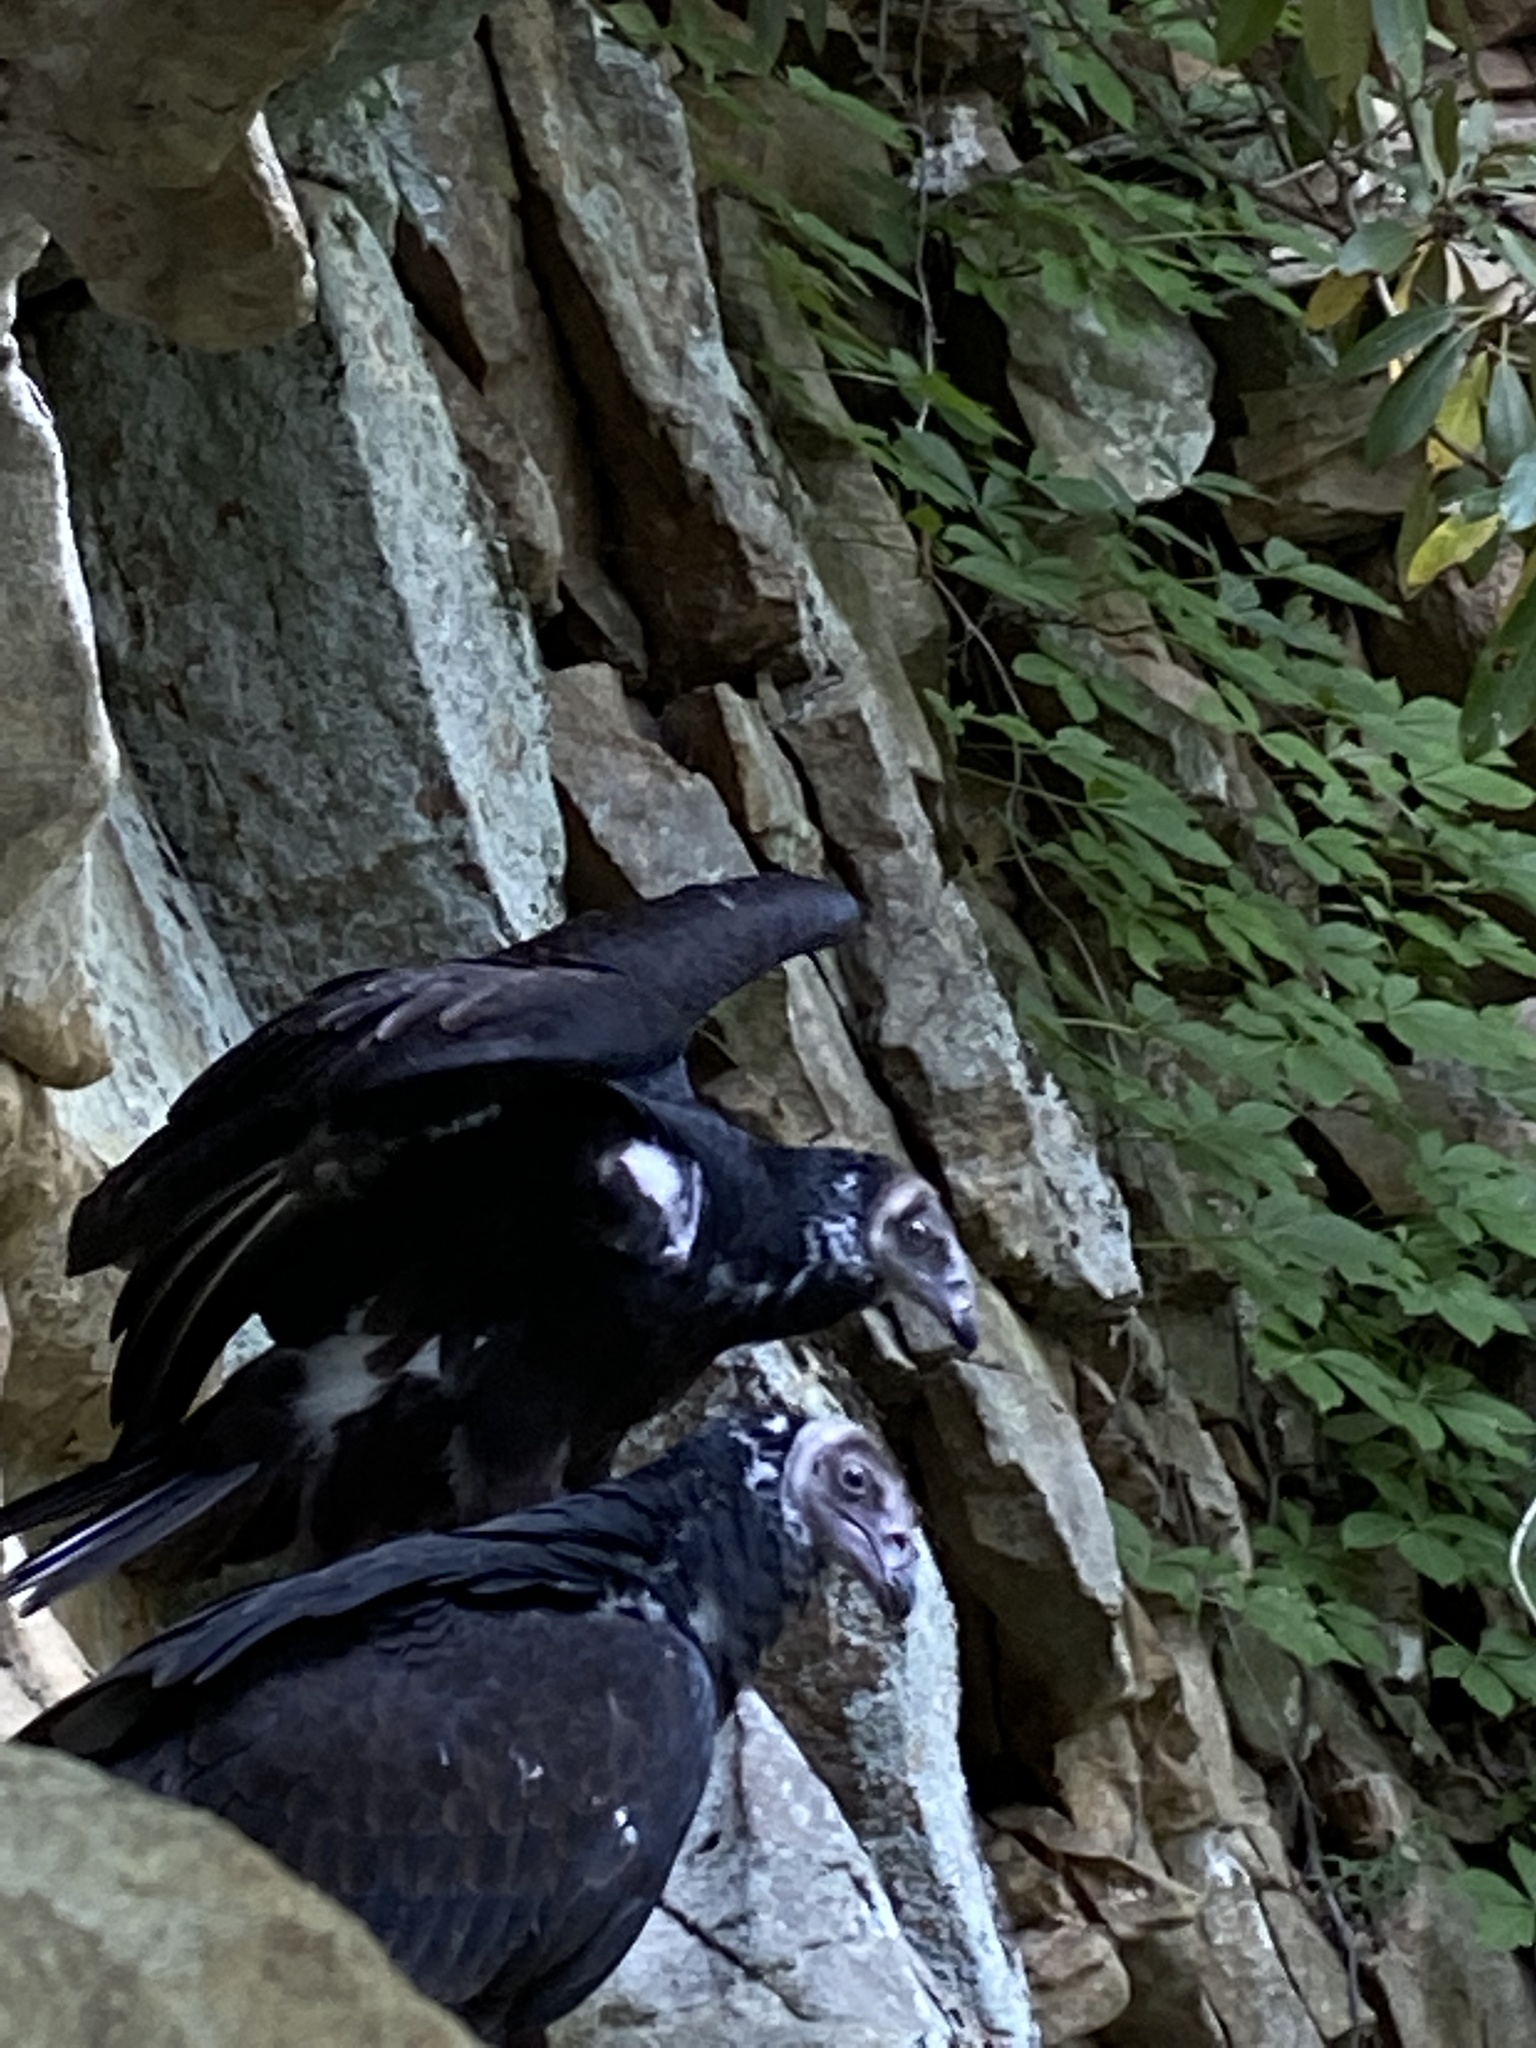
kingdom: Animalia
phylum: Chordata
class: Aves
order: Accipitriformes
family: Cathartidae
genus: Cathartes
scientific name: Cathartes aura
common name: Turkey vulture
